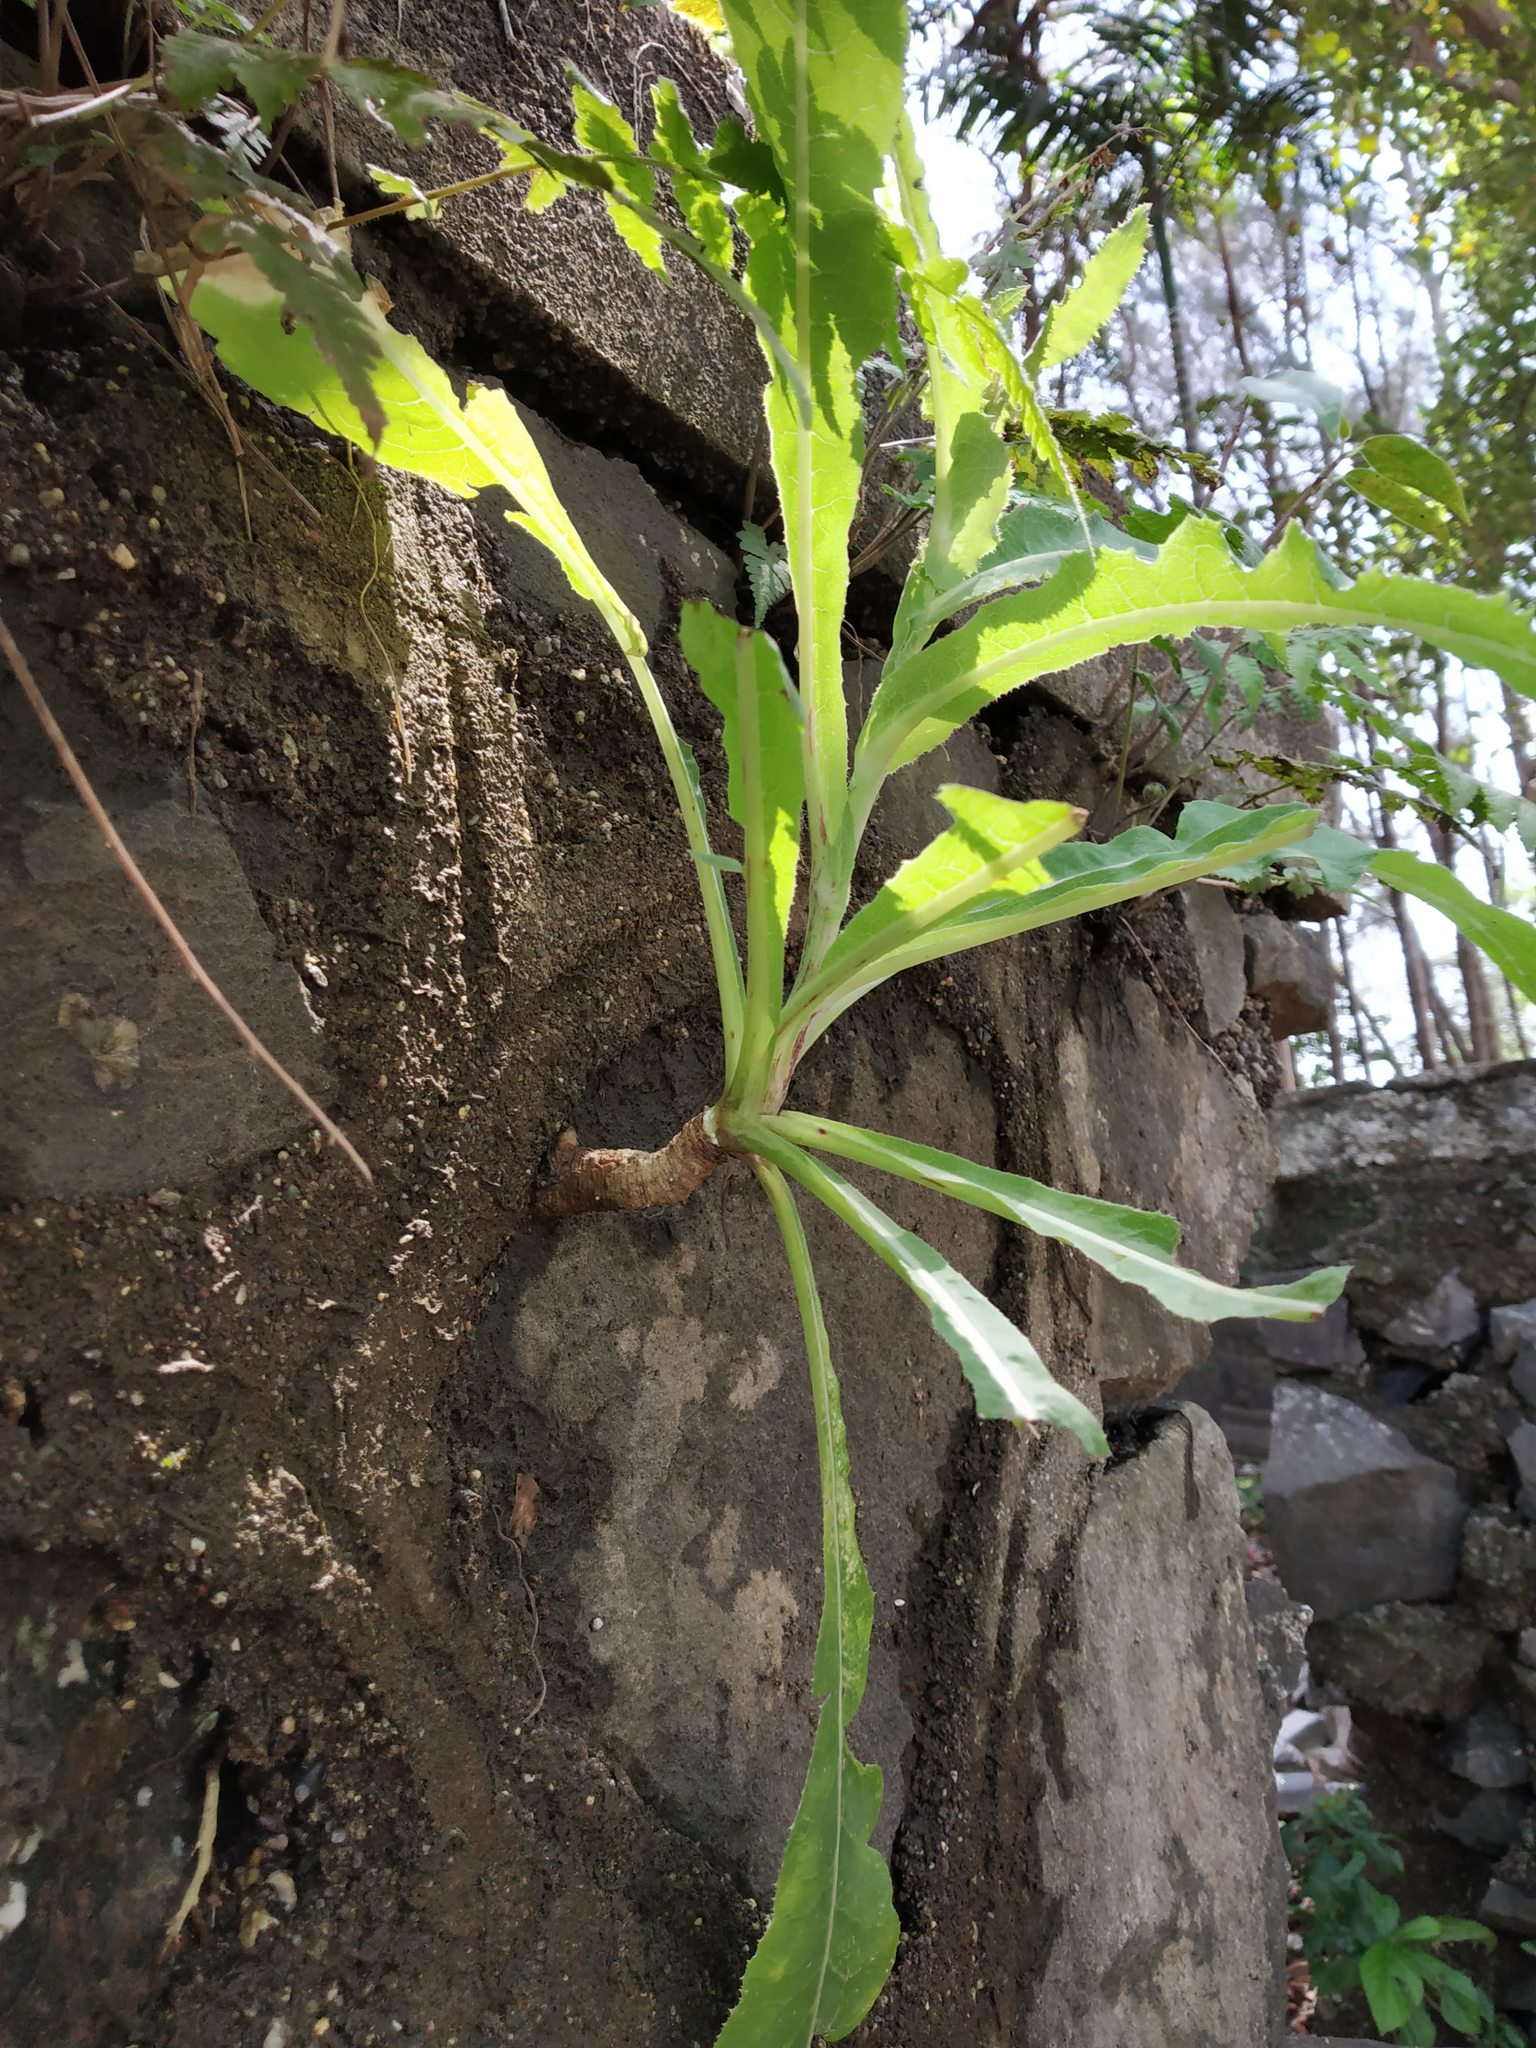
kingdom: Plantae
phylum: Tracheophyta
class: Magnoliopsida
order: Asterales
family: Asteraceae
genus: Sonchus
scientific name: Sonchus wightianus
